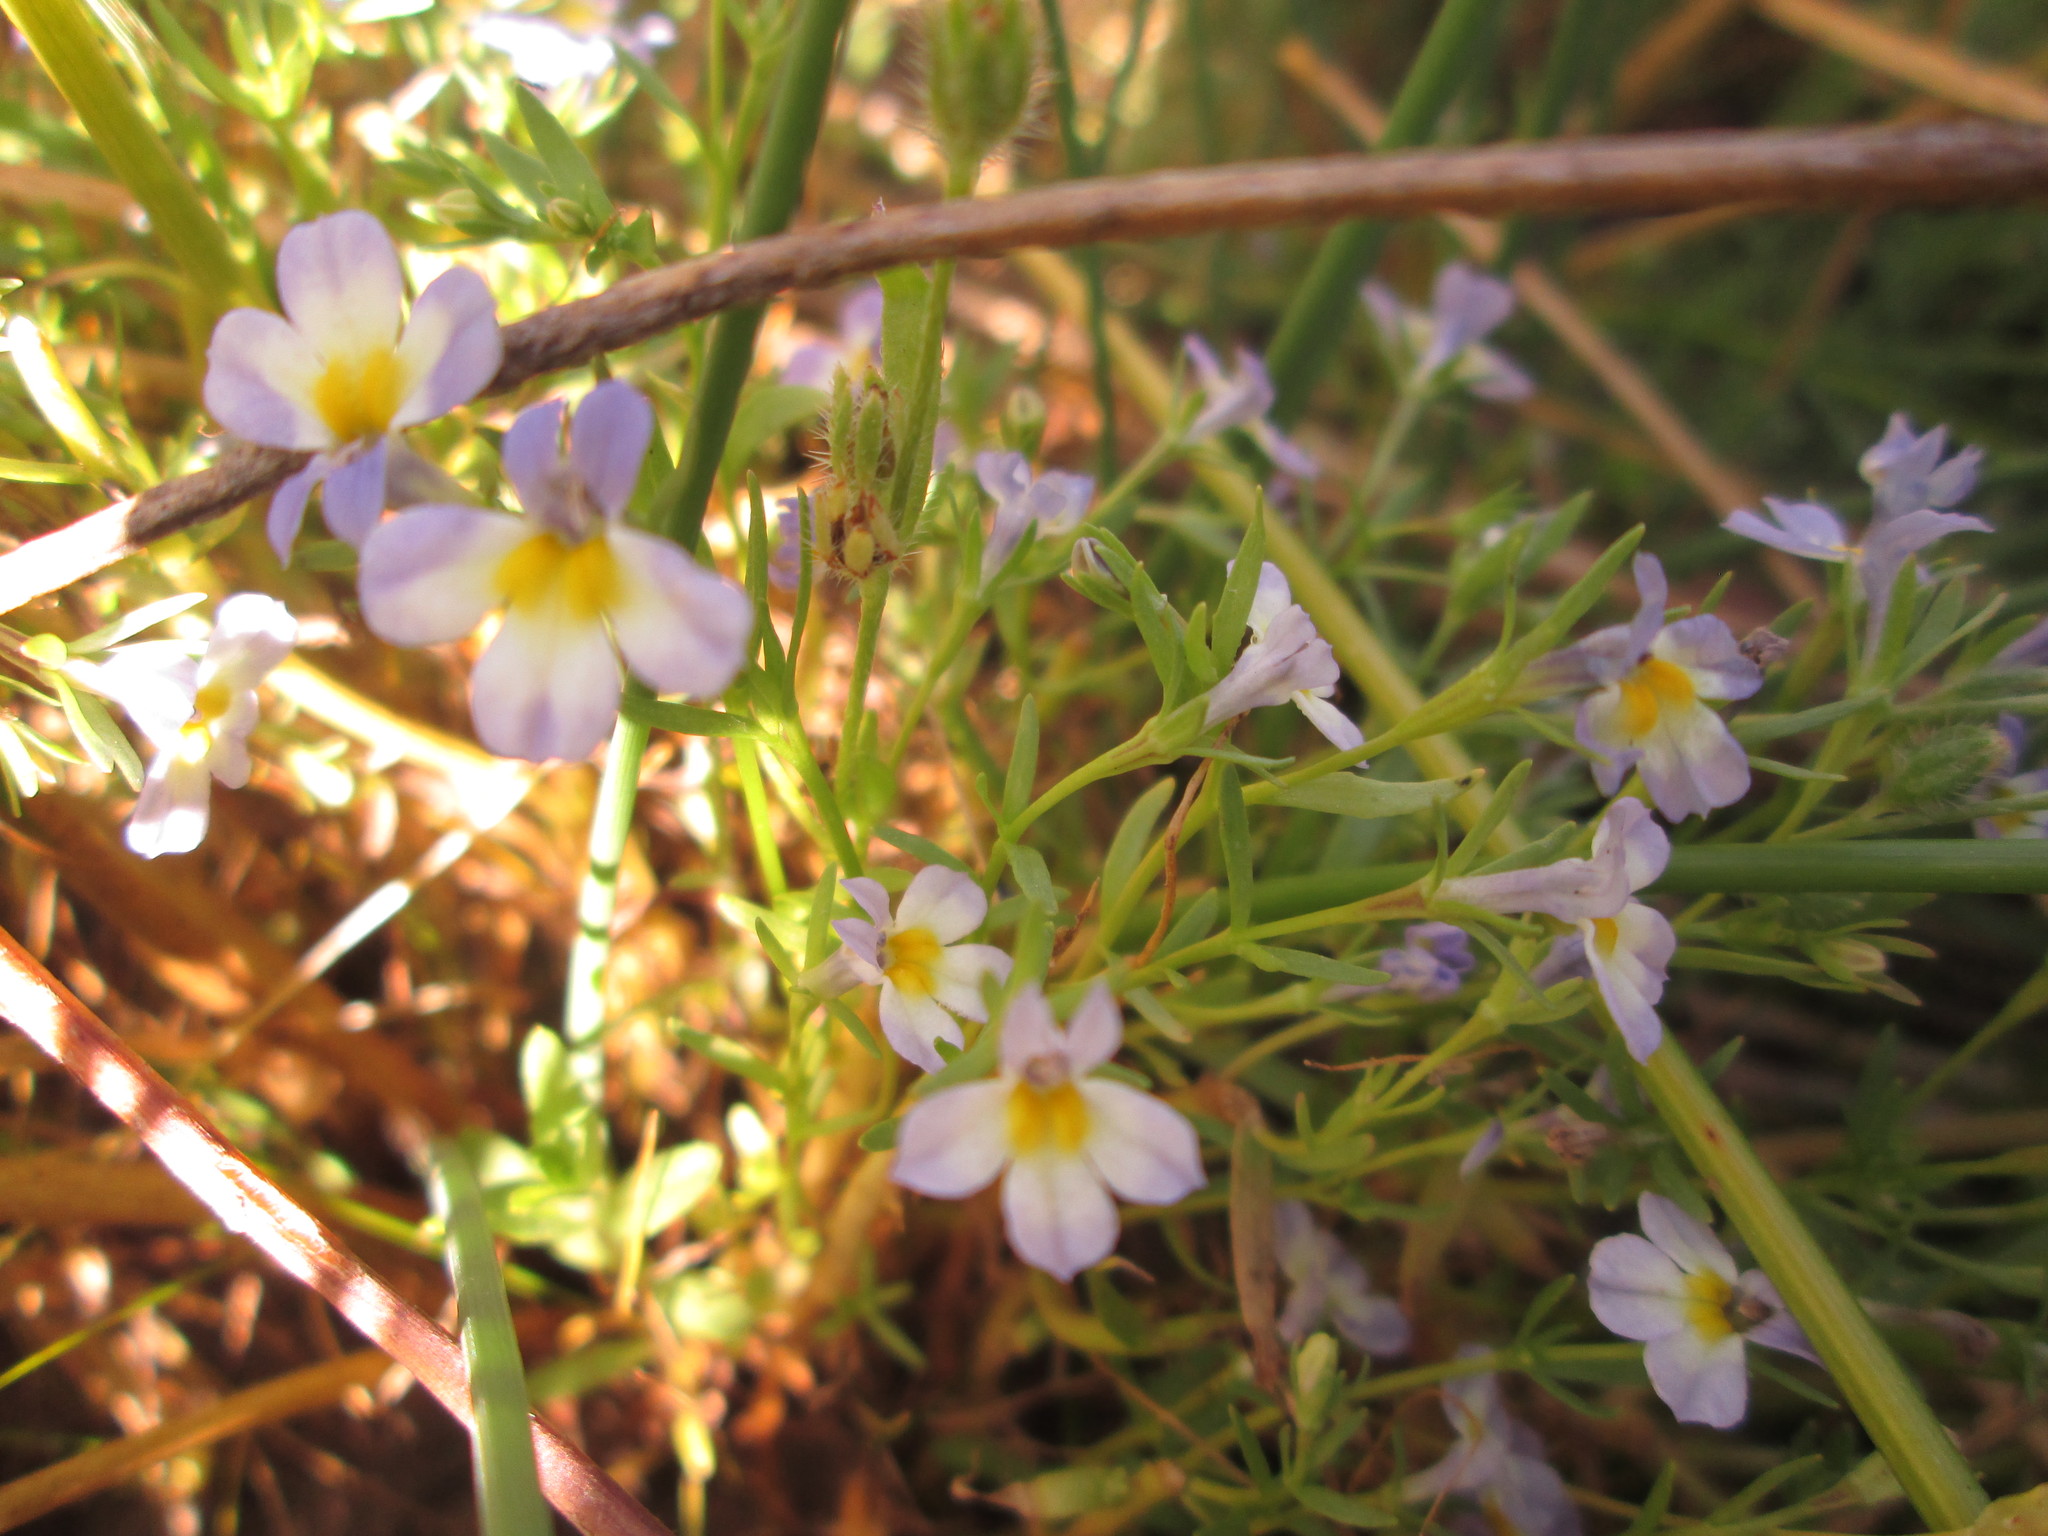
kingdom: Plantae
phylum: Tracheophyta
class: Magnoliopsida
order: Asterales
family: Campanulaceae
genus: Porterella
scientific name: Porterella carnosula
